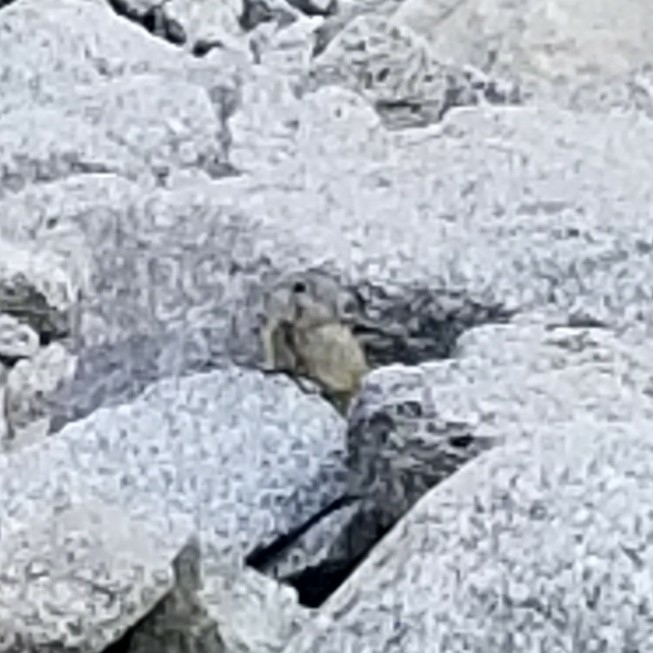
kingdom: Animalia
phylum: Chordata
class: Mammalia
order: Lagomorpha
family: Ochotonidae
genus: Ochotona
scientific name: Ochotona princeps
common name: American pika
